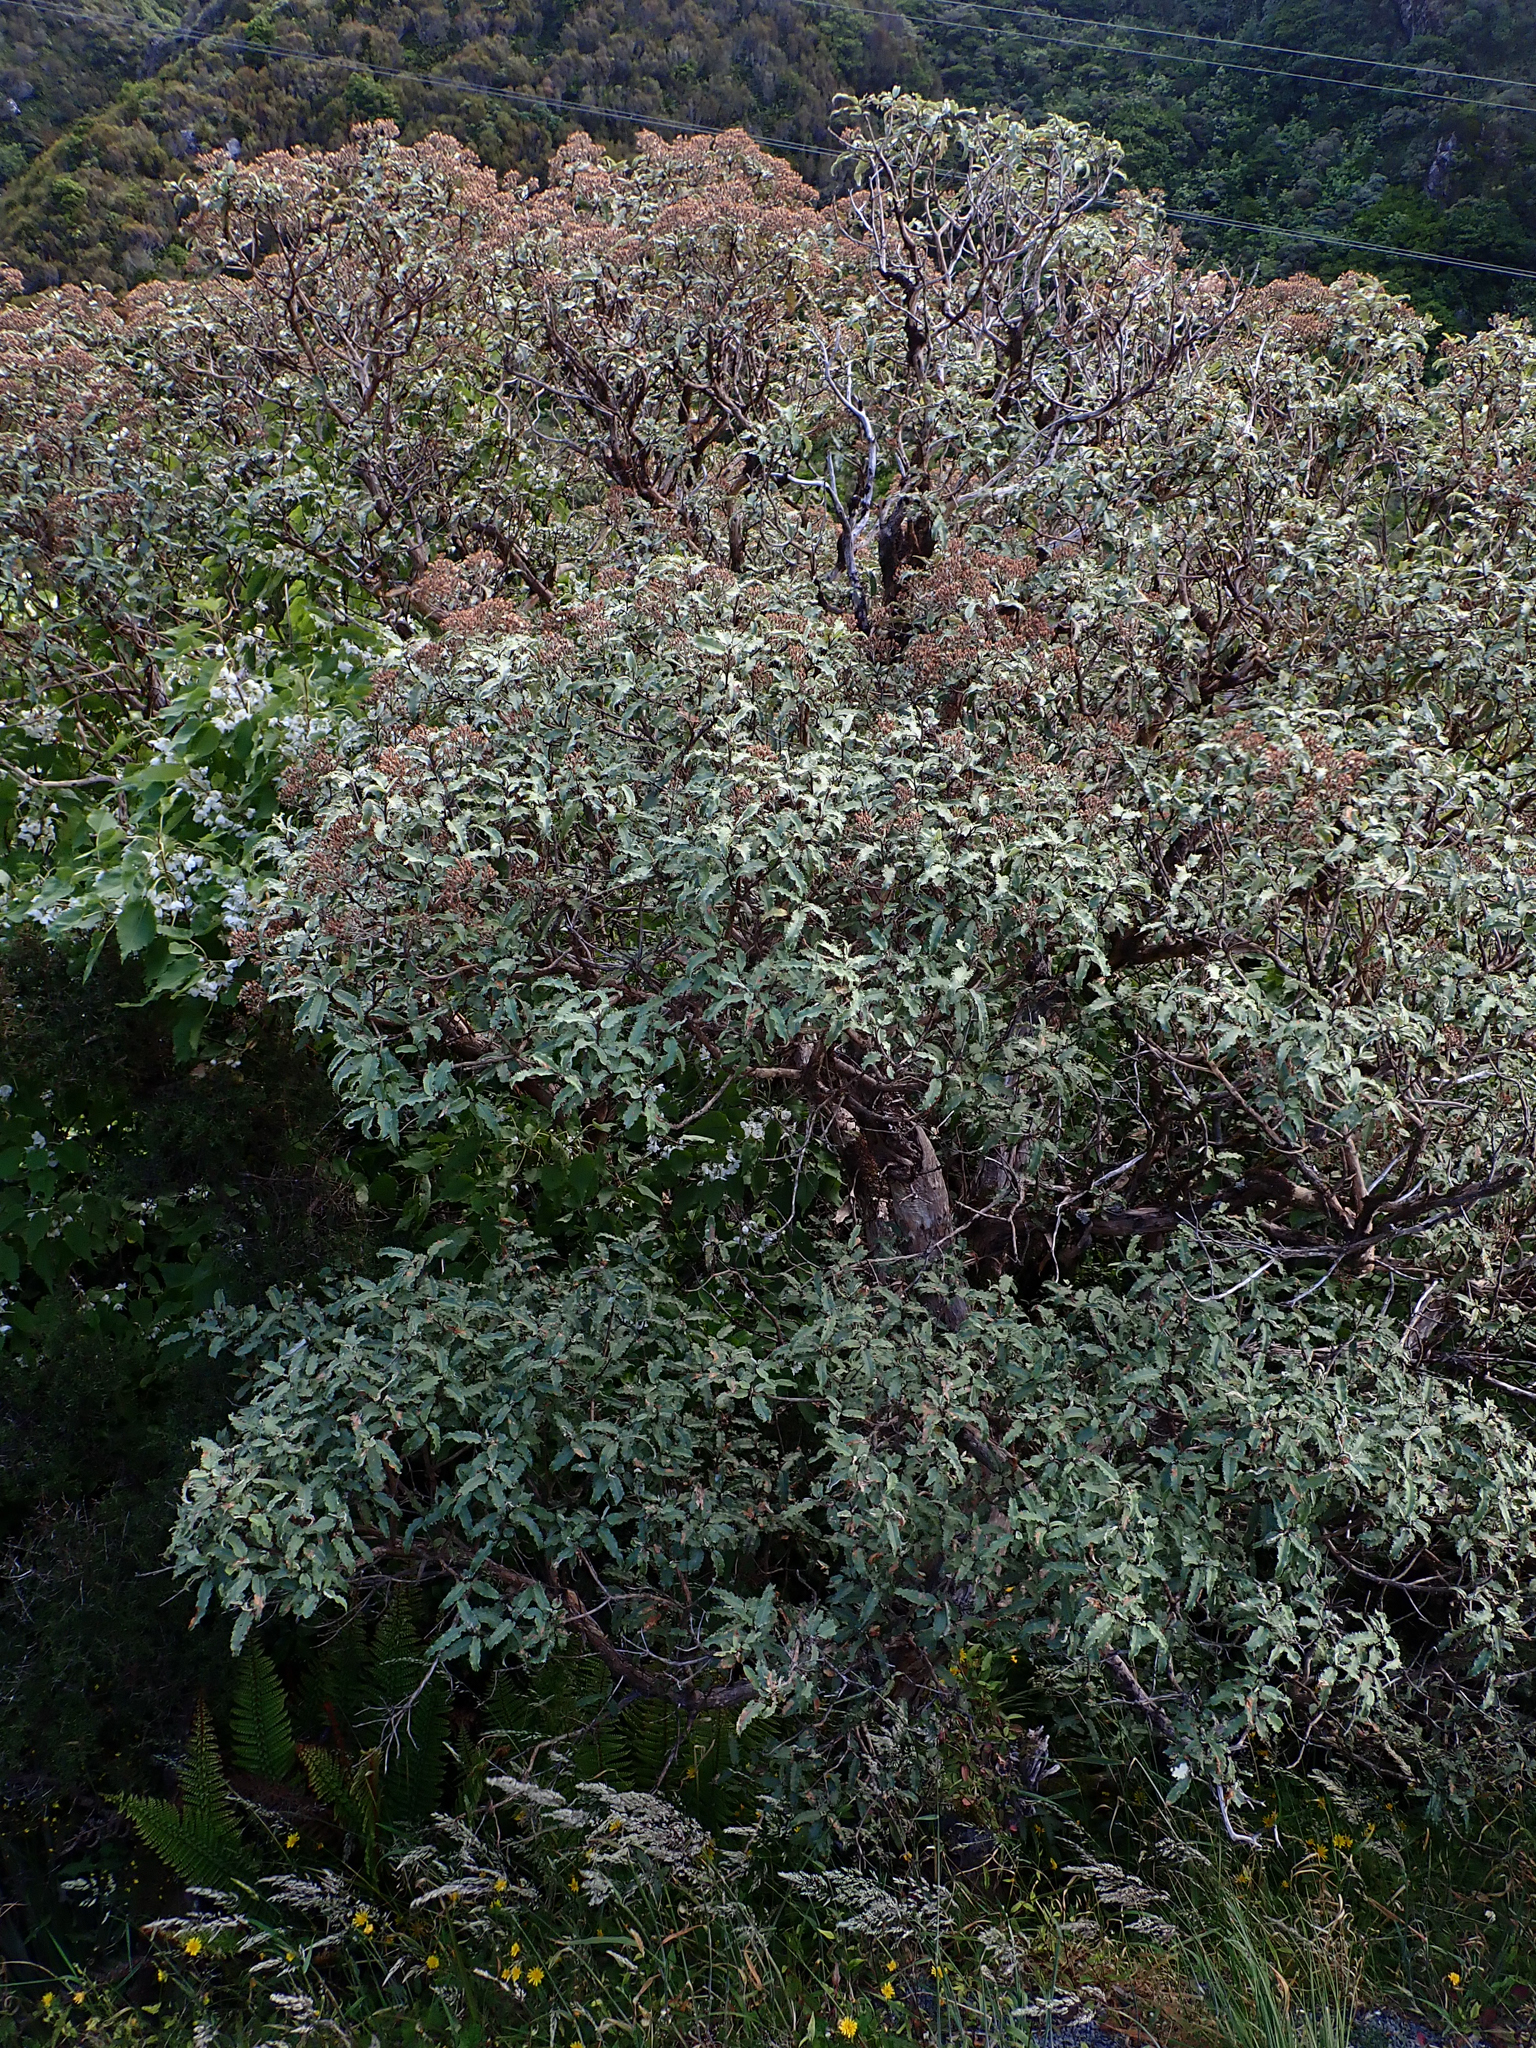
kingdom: Plantae
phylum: Tracheophyta
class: Magnoliopsida
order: Asterales
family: Asteraceae
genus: Olearia
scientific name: Olearia ilicifolia
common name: Maori-holly
